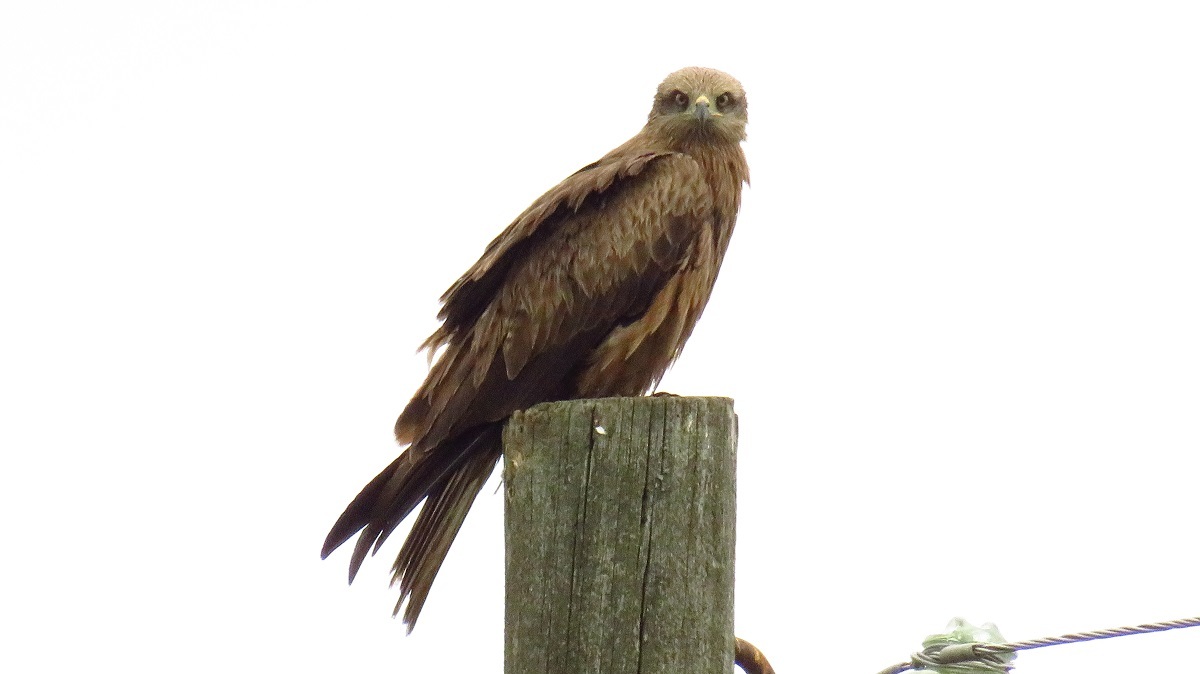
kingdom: Animalia
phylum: Chordata
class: Aves
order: Accipitriformes
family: Accipitridae
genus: Milvus
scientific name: Milvus migrans
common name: Black kite
